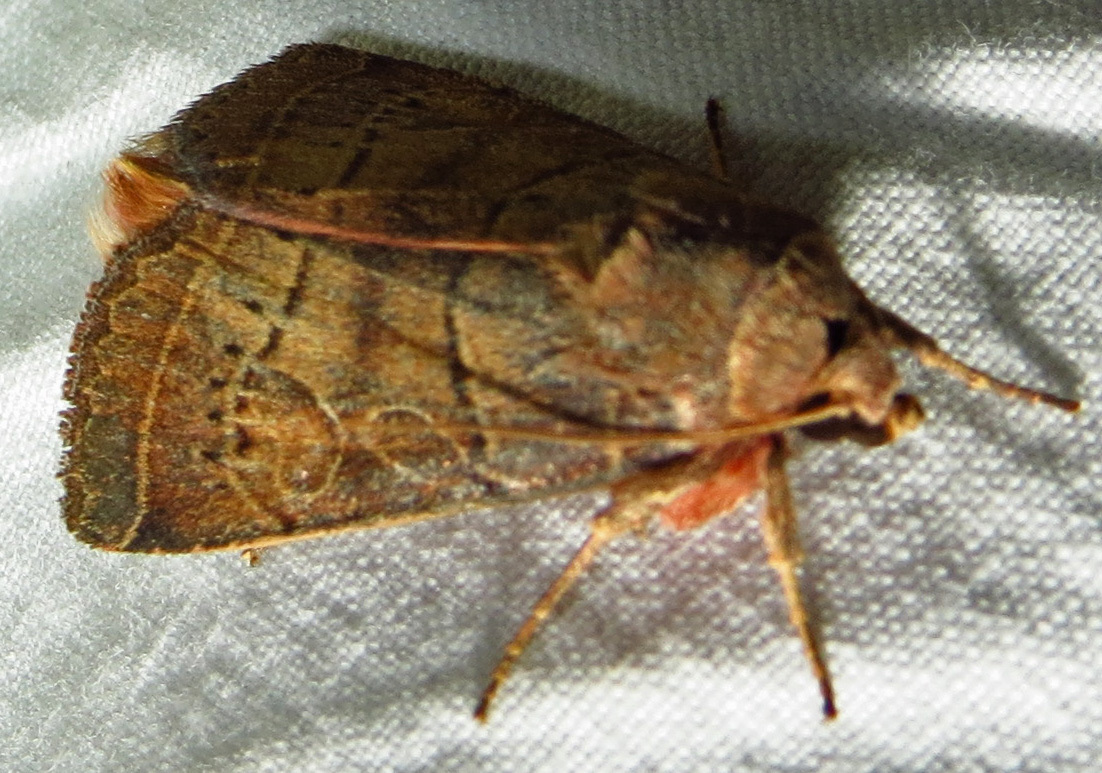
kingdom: Animalia
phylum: Arthropoda
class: Insecta
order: Lepidoptera
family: Noctuidae
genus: Orthodes
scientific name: Orthodes majuscula
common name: Rustic quaker
